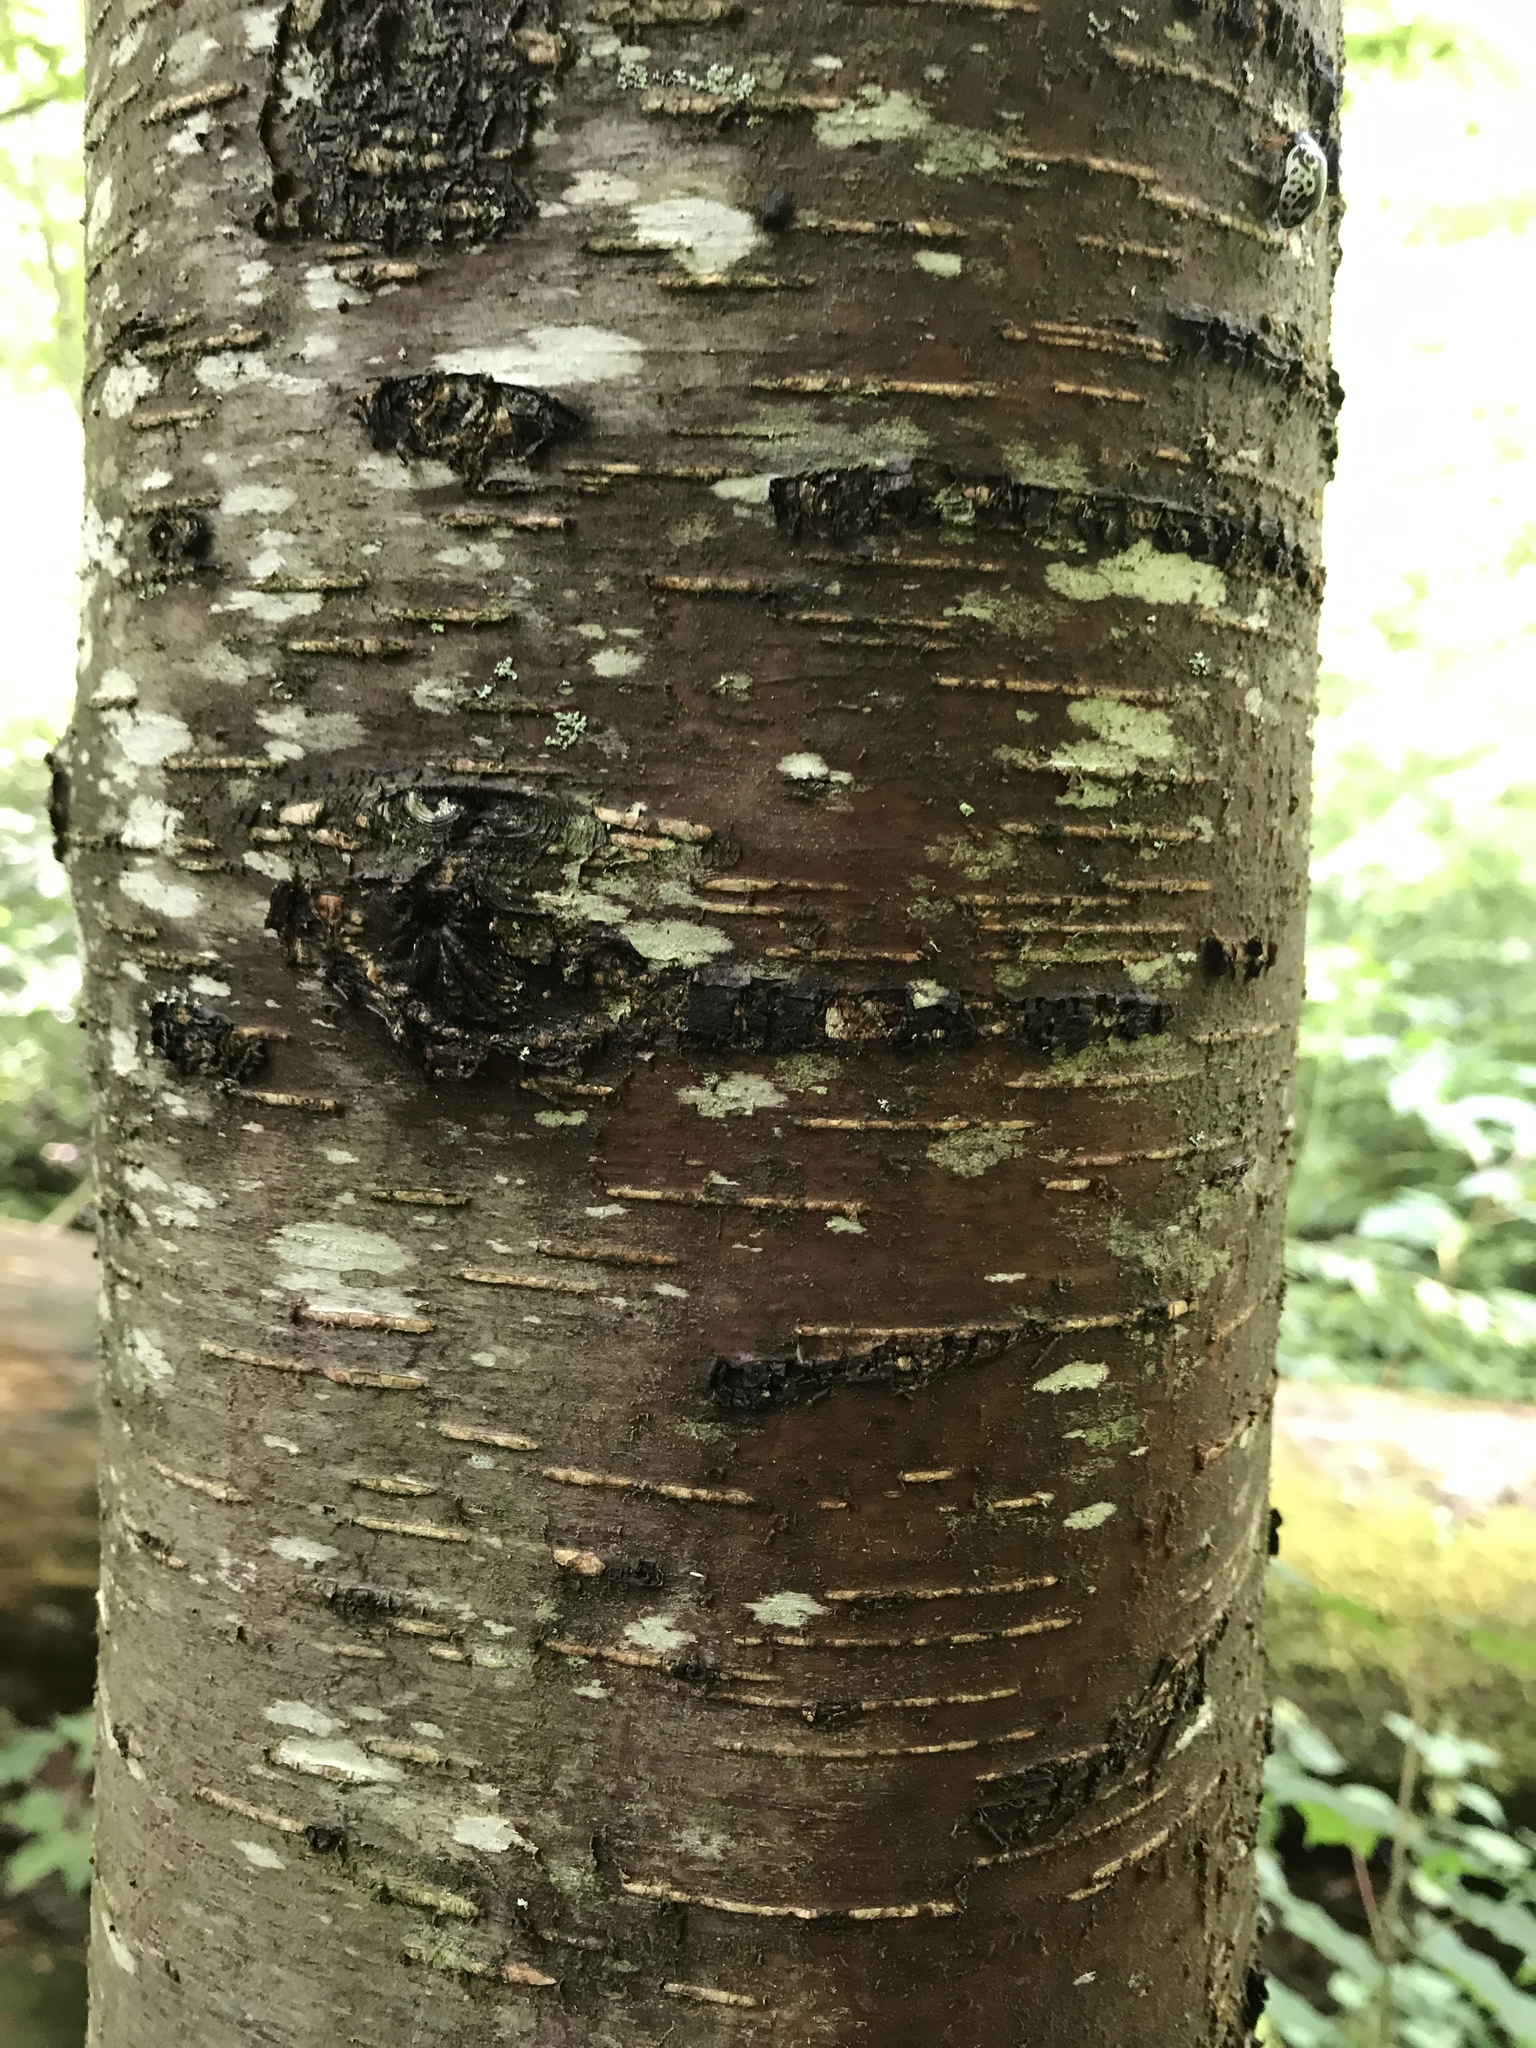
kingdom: Plantae
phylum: Tracheophyta
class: Magnoliopsida
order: Fagales
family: Betulaceae
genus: Betula
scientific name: Betula lenta
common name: Black birch
